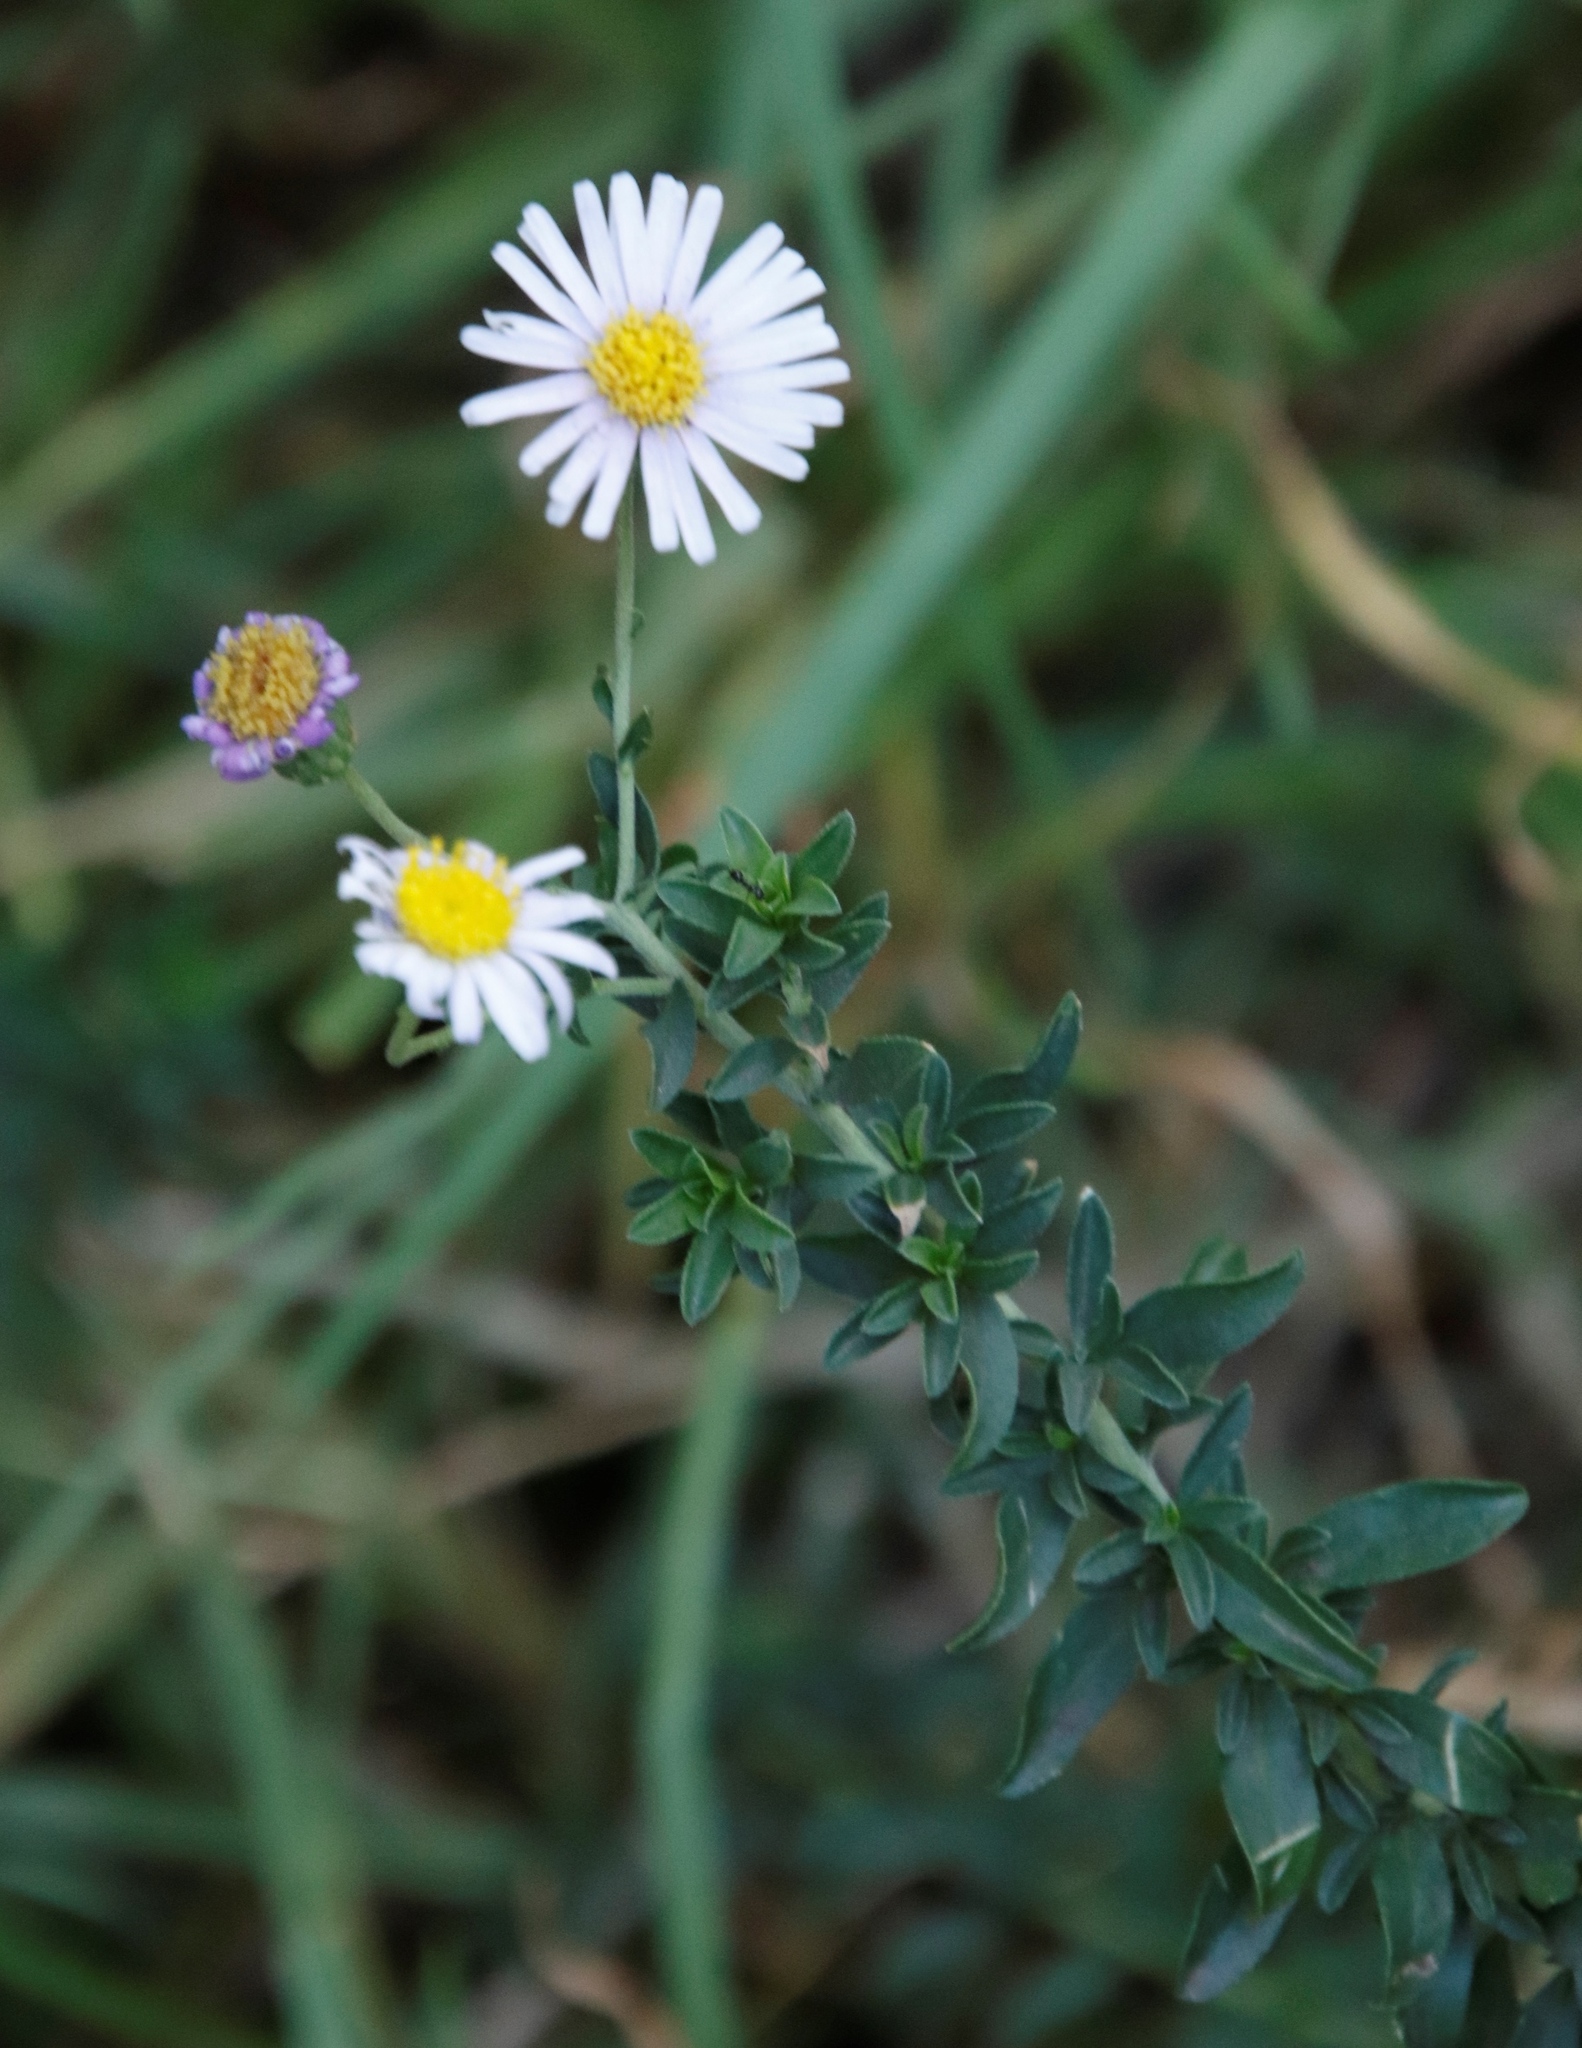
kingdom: Plantae
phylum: Tracheophyta
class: Magnoliopsida
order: Asterales
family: Asteraceae
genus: Erigeron
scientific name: Erigeron karvinskianus
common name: Mexican fleabane
